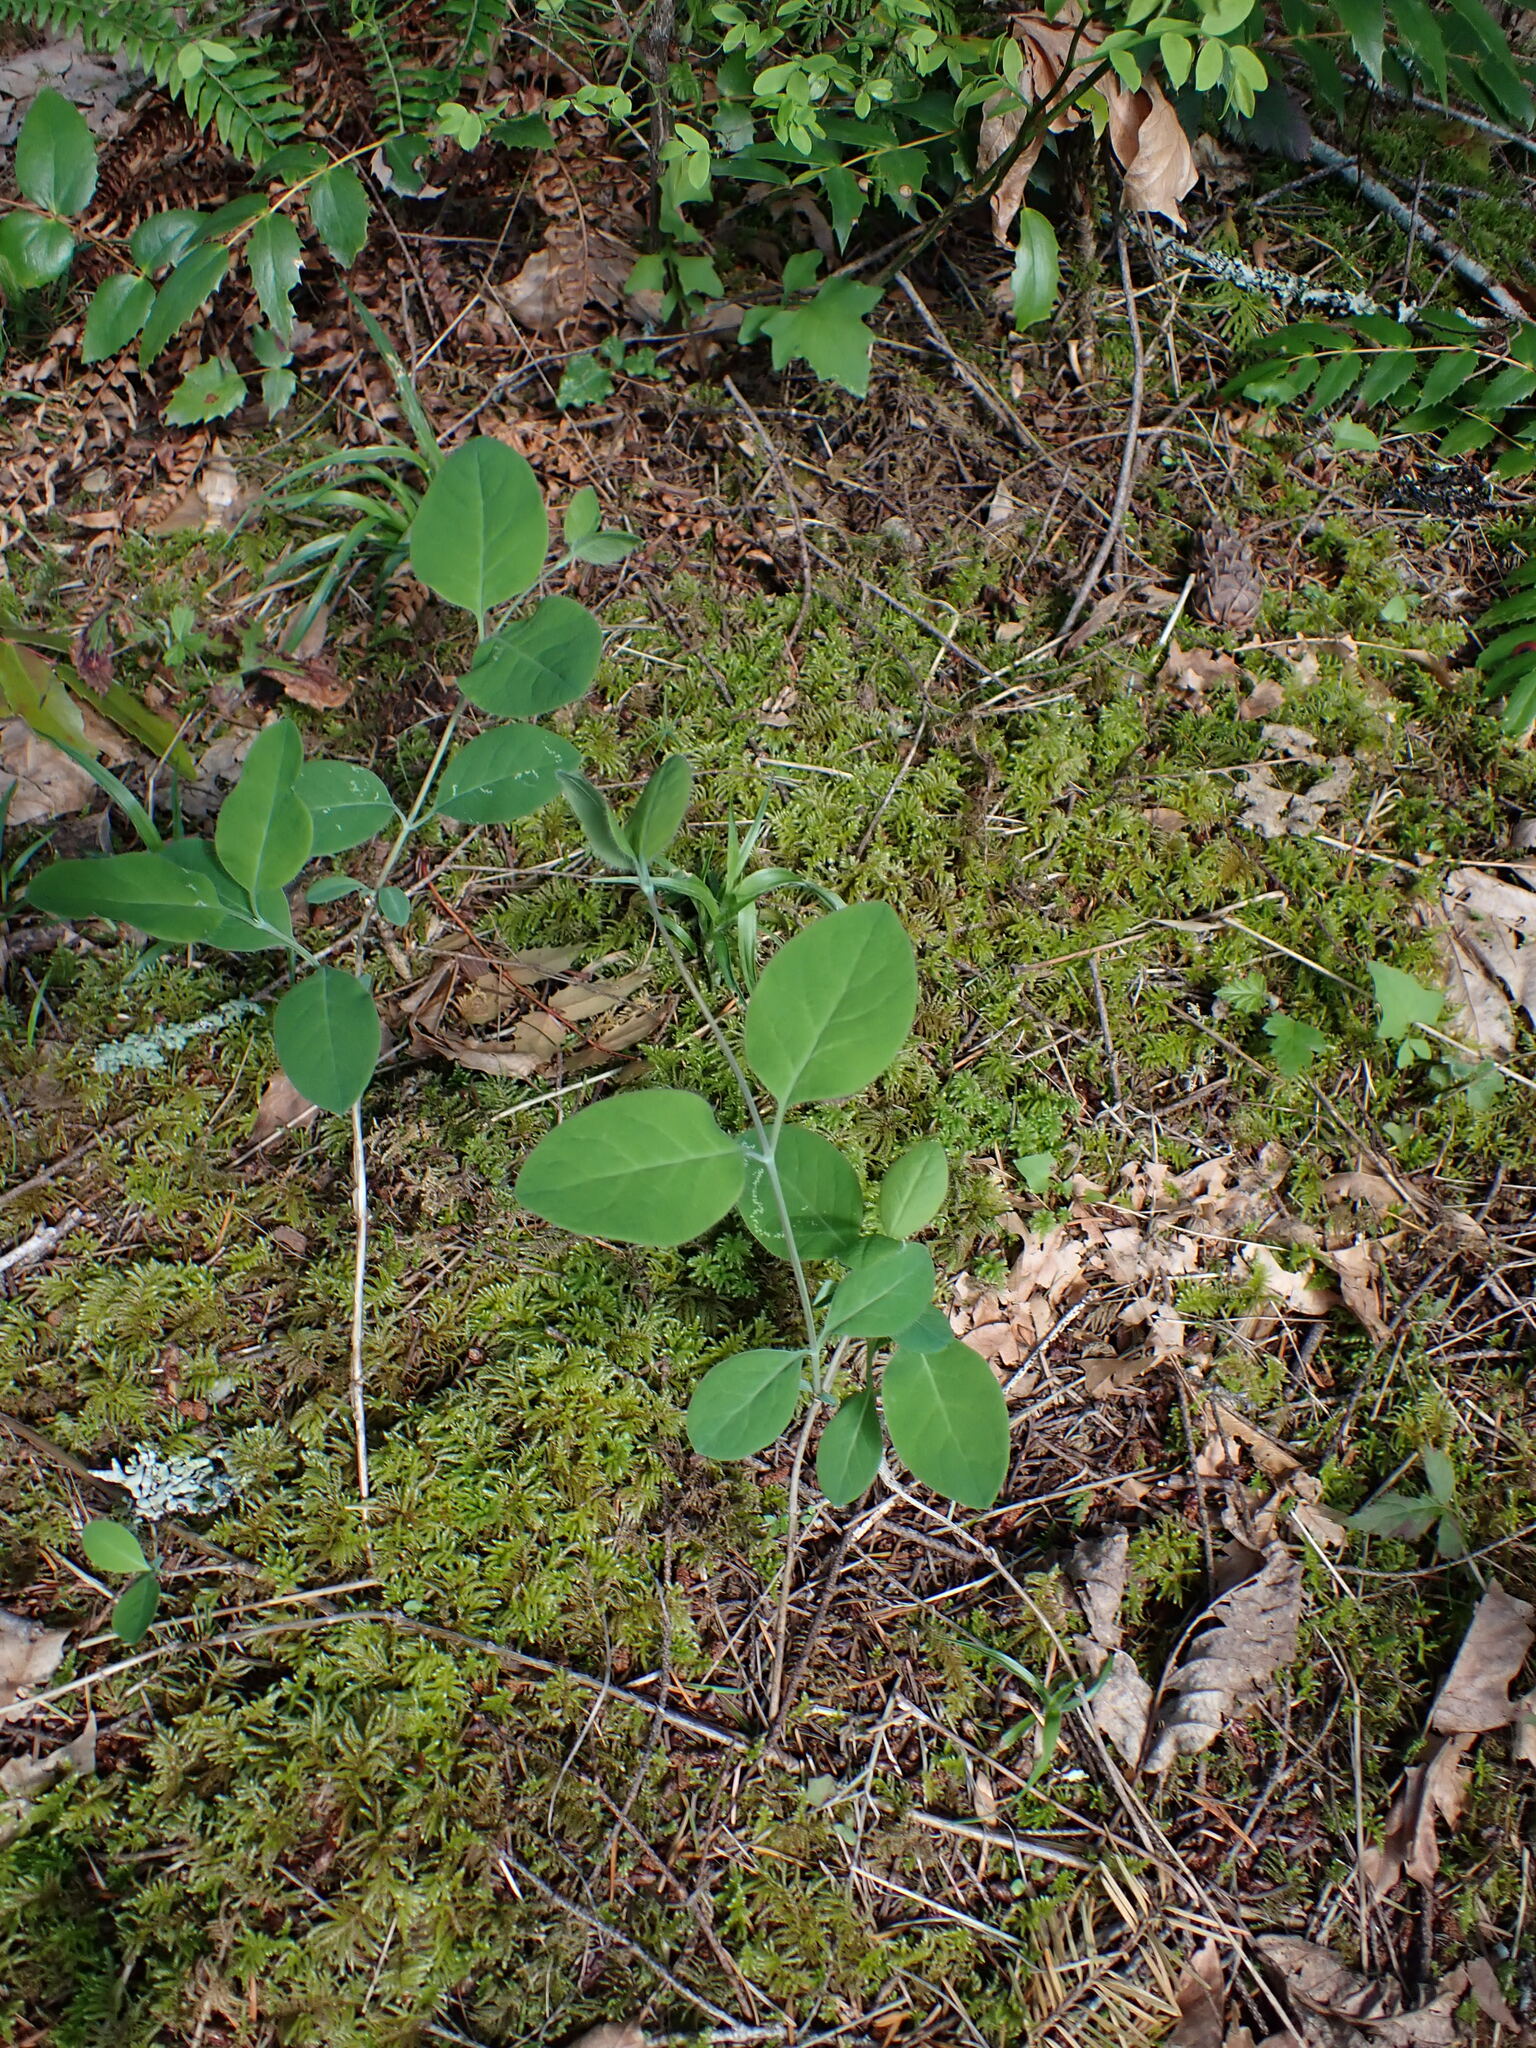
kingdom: Plantae
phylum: Tracheophyta
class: Magnoliopsida
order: Dipsacales
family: Caprifoliaceae
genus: Lonicera
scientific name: Lonicera ciliosa
